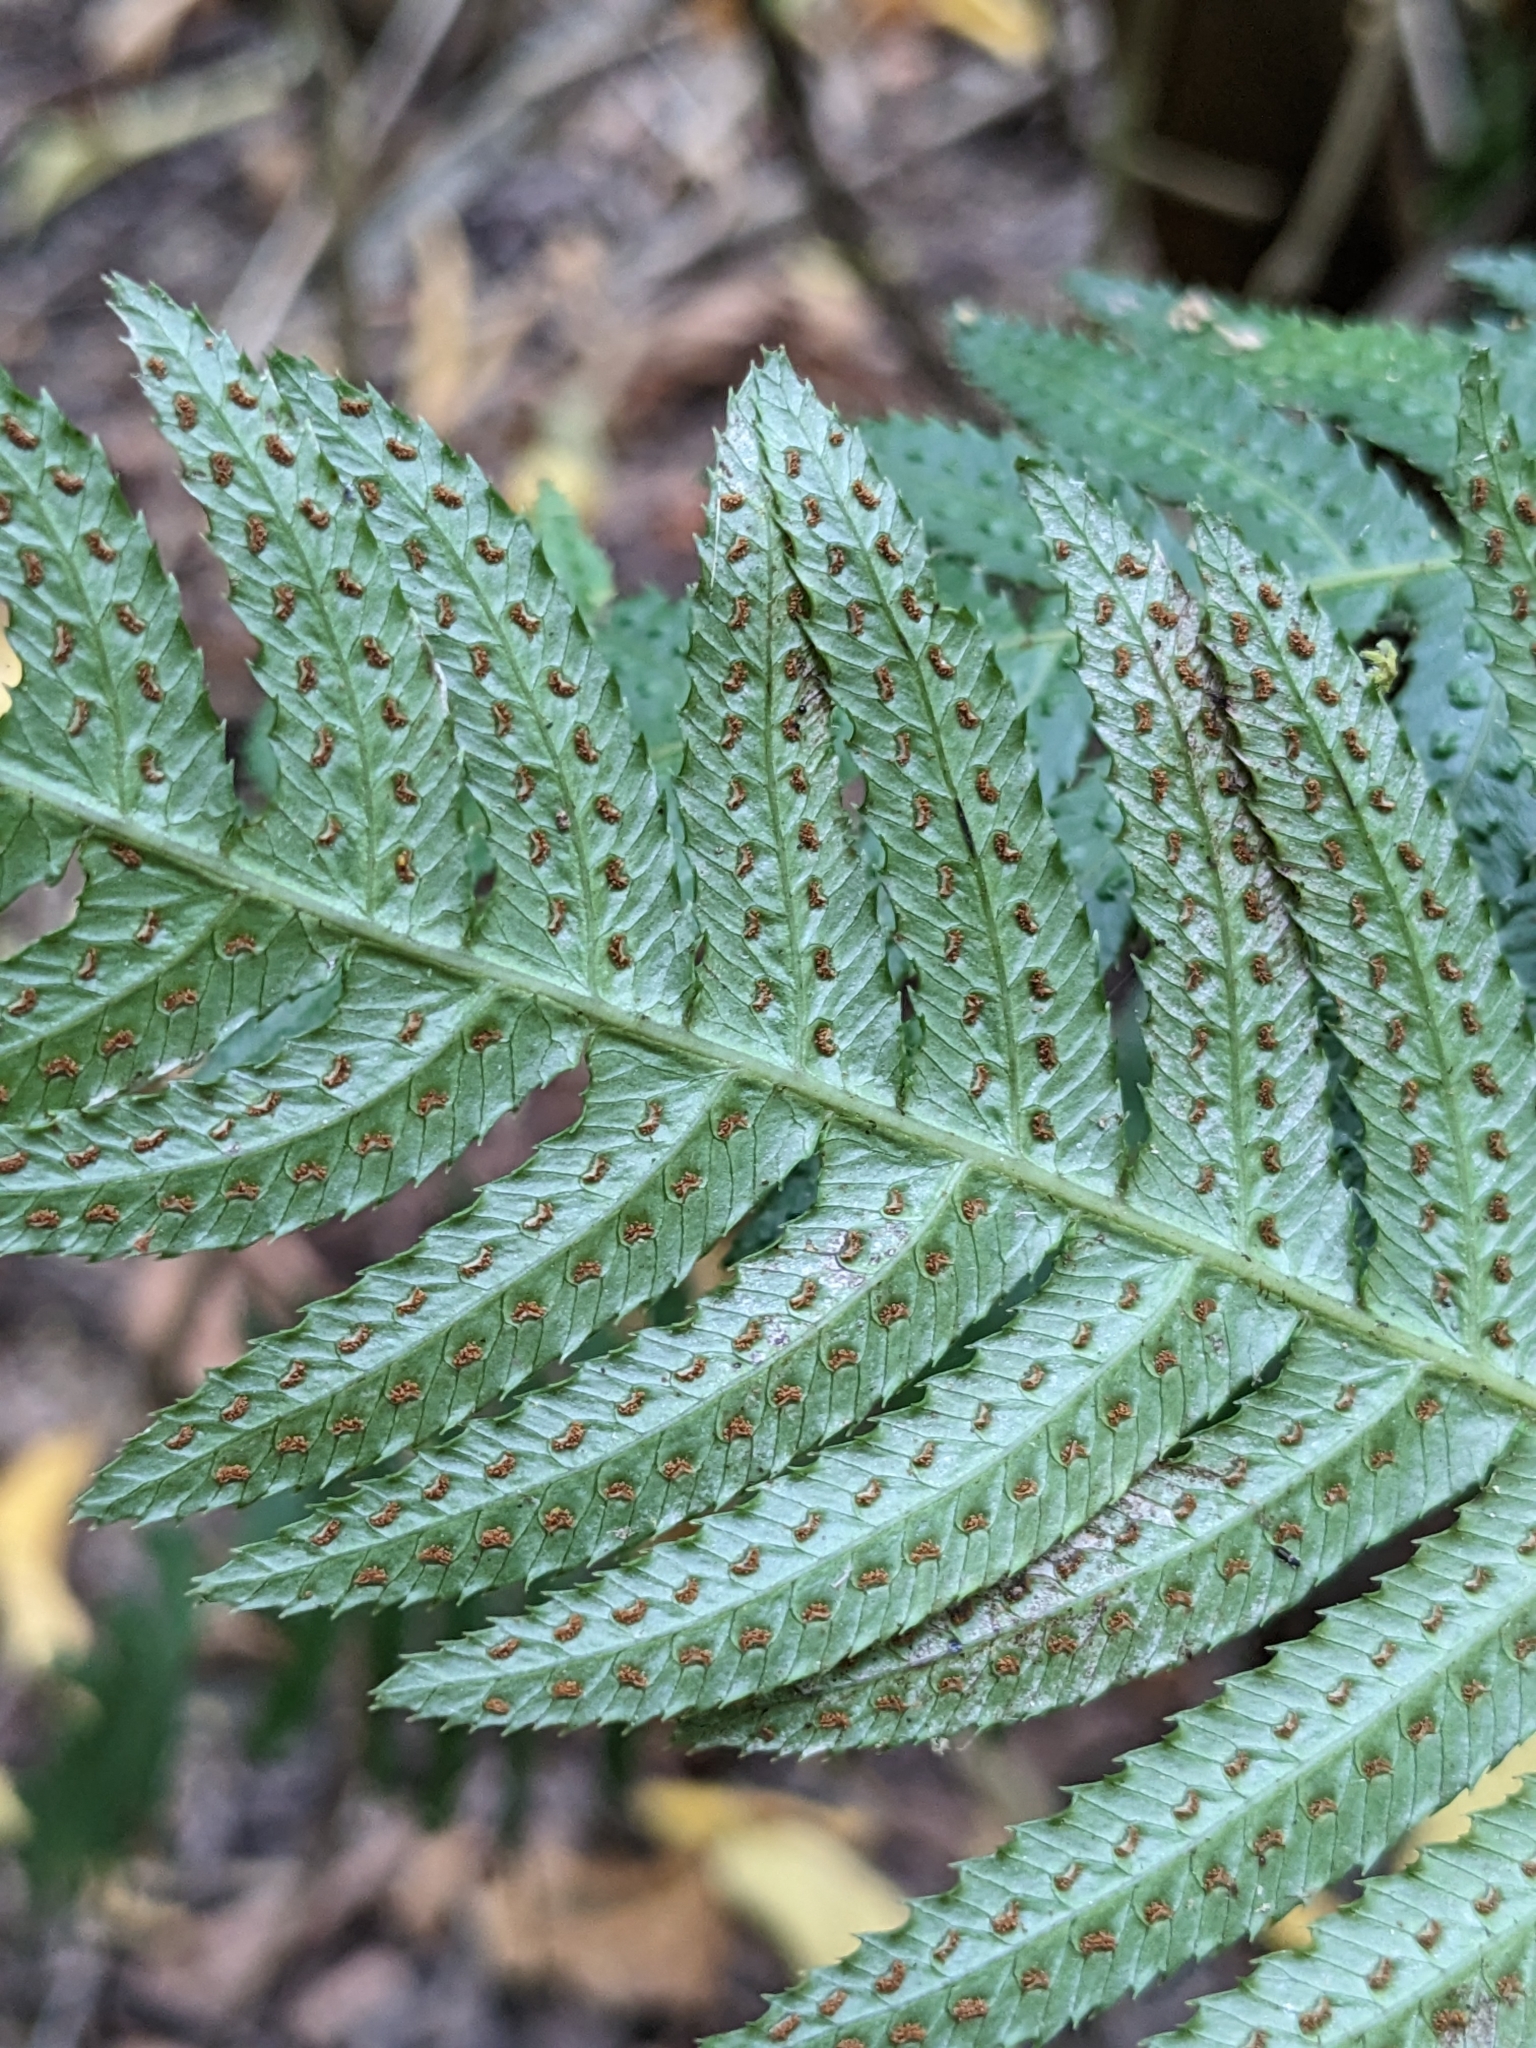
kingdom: Plantae
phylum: Tracheophyta
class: Polypodiopsida
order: Polypodiales
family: Blechnaceae
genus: Doodia
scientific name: Doodia aspera
